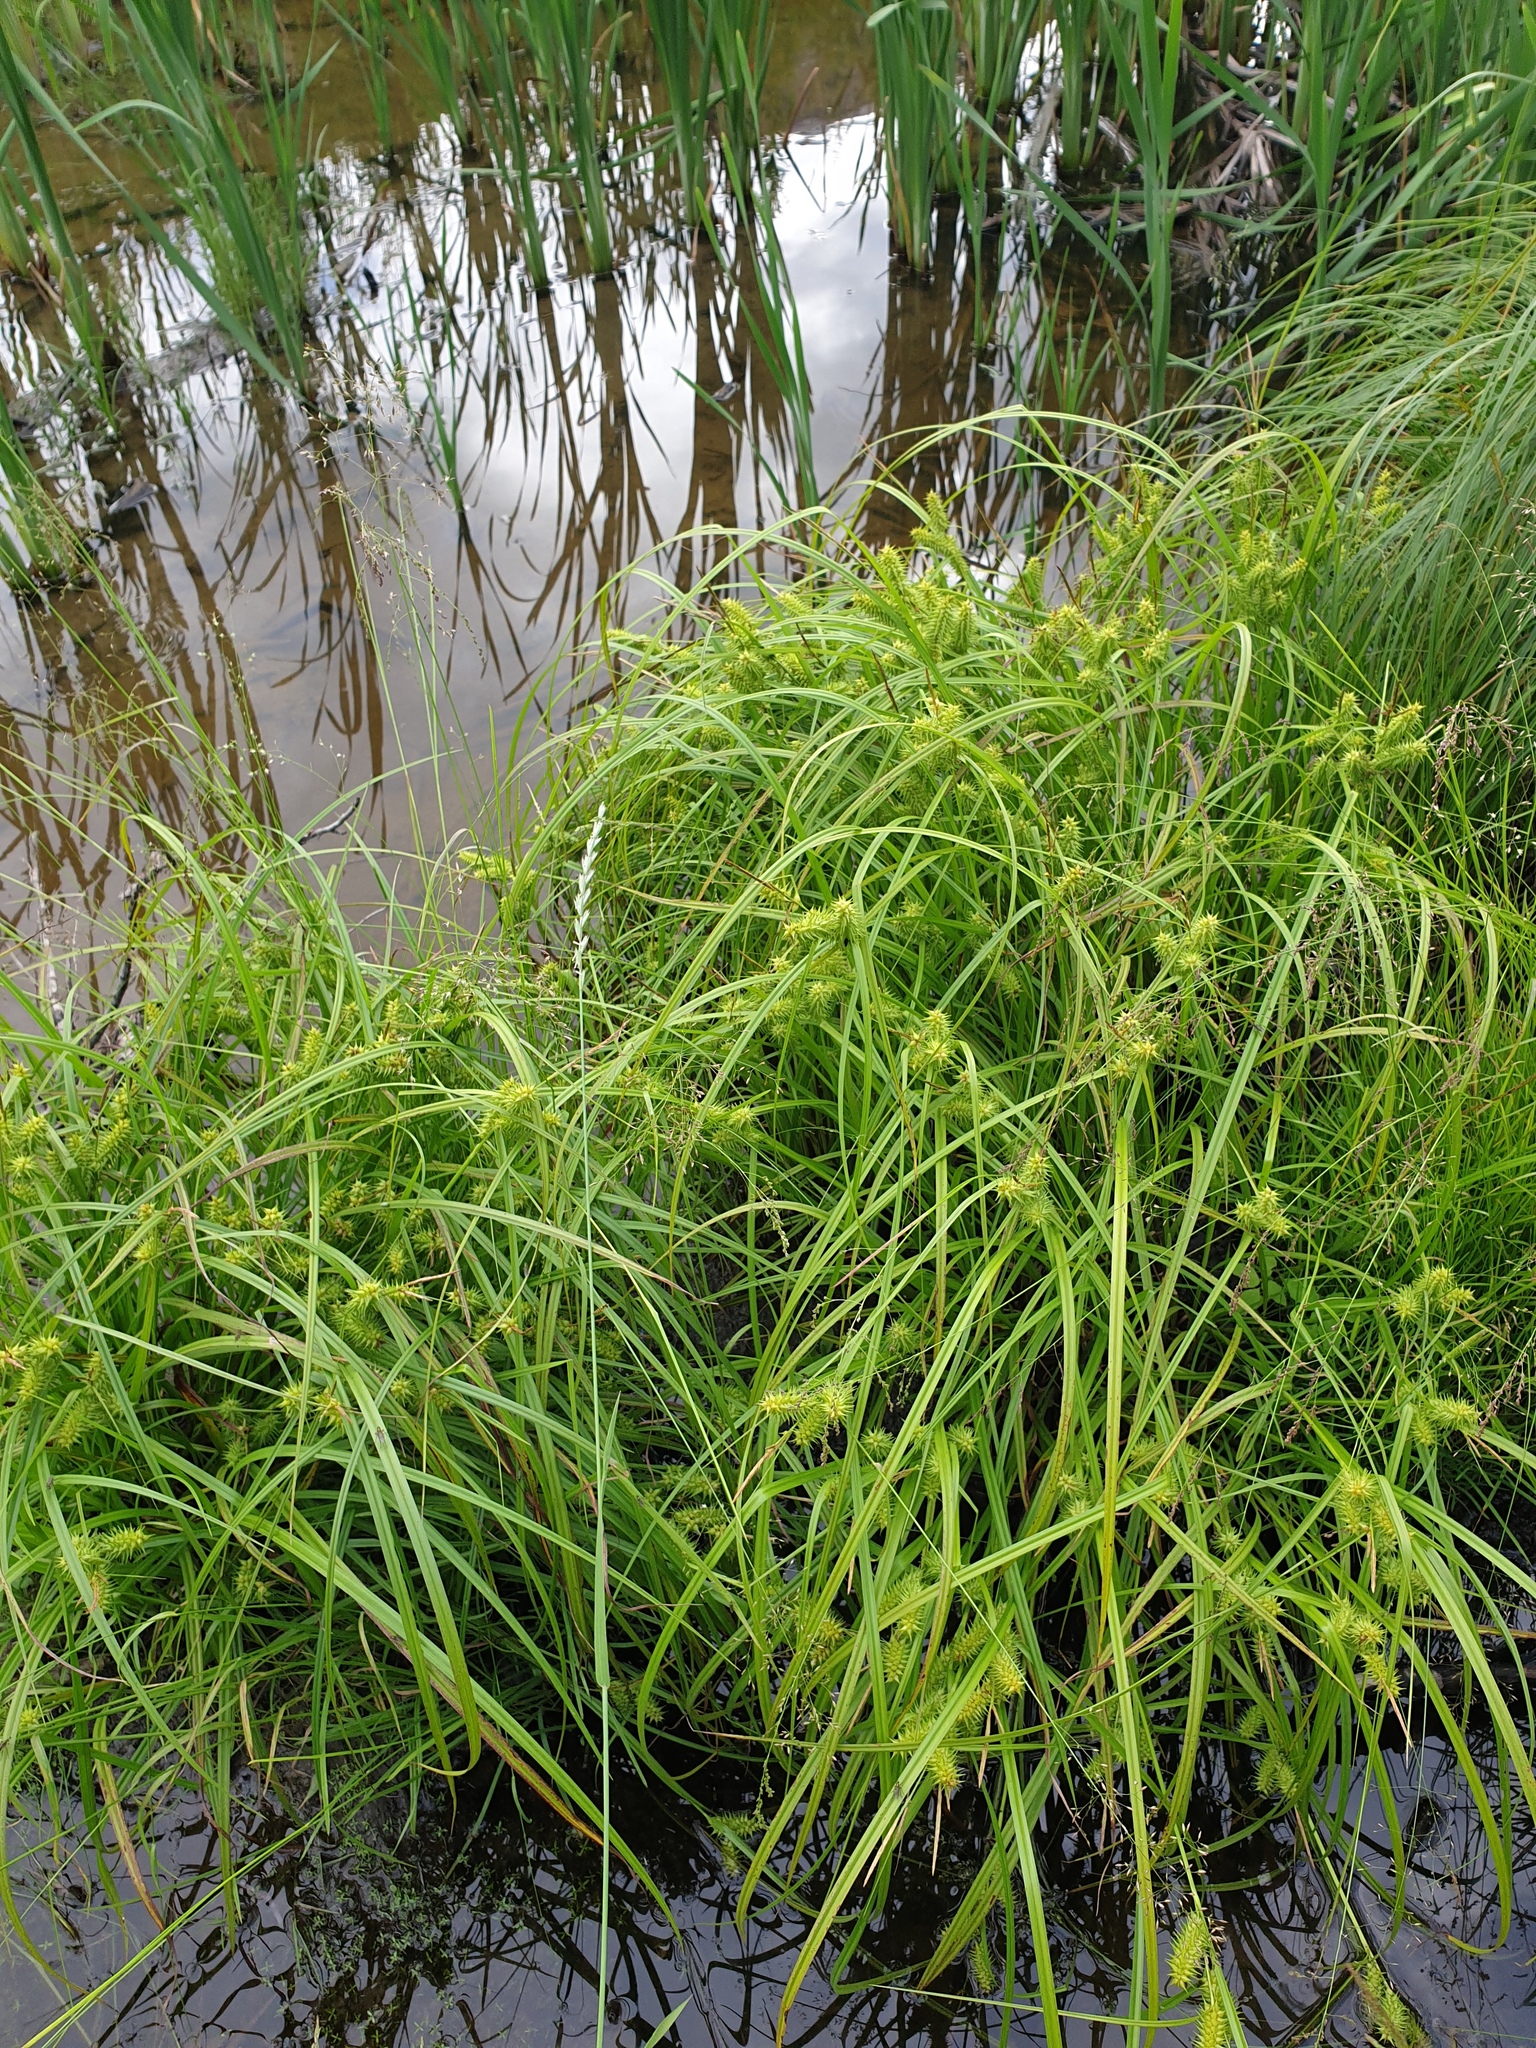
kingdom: Plantae
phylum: Tracheophyta
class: Liliopsida
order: Poales
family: Cyperaceae
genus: Carex
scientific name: Carex retrorsa
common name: Knot-sheath sedge
